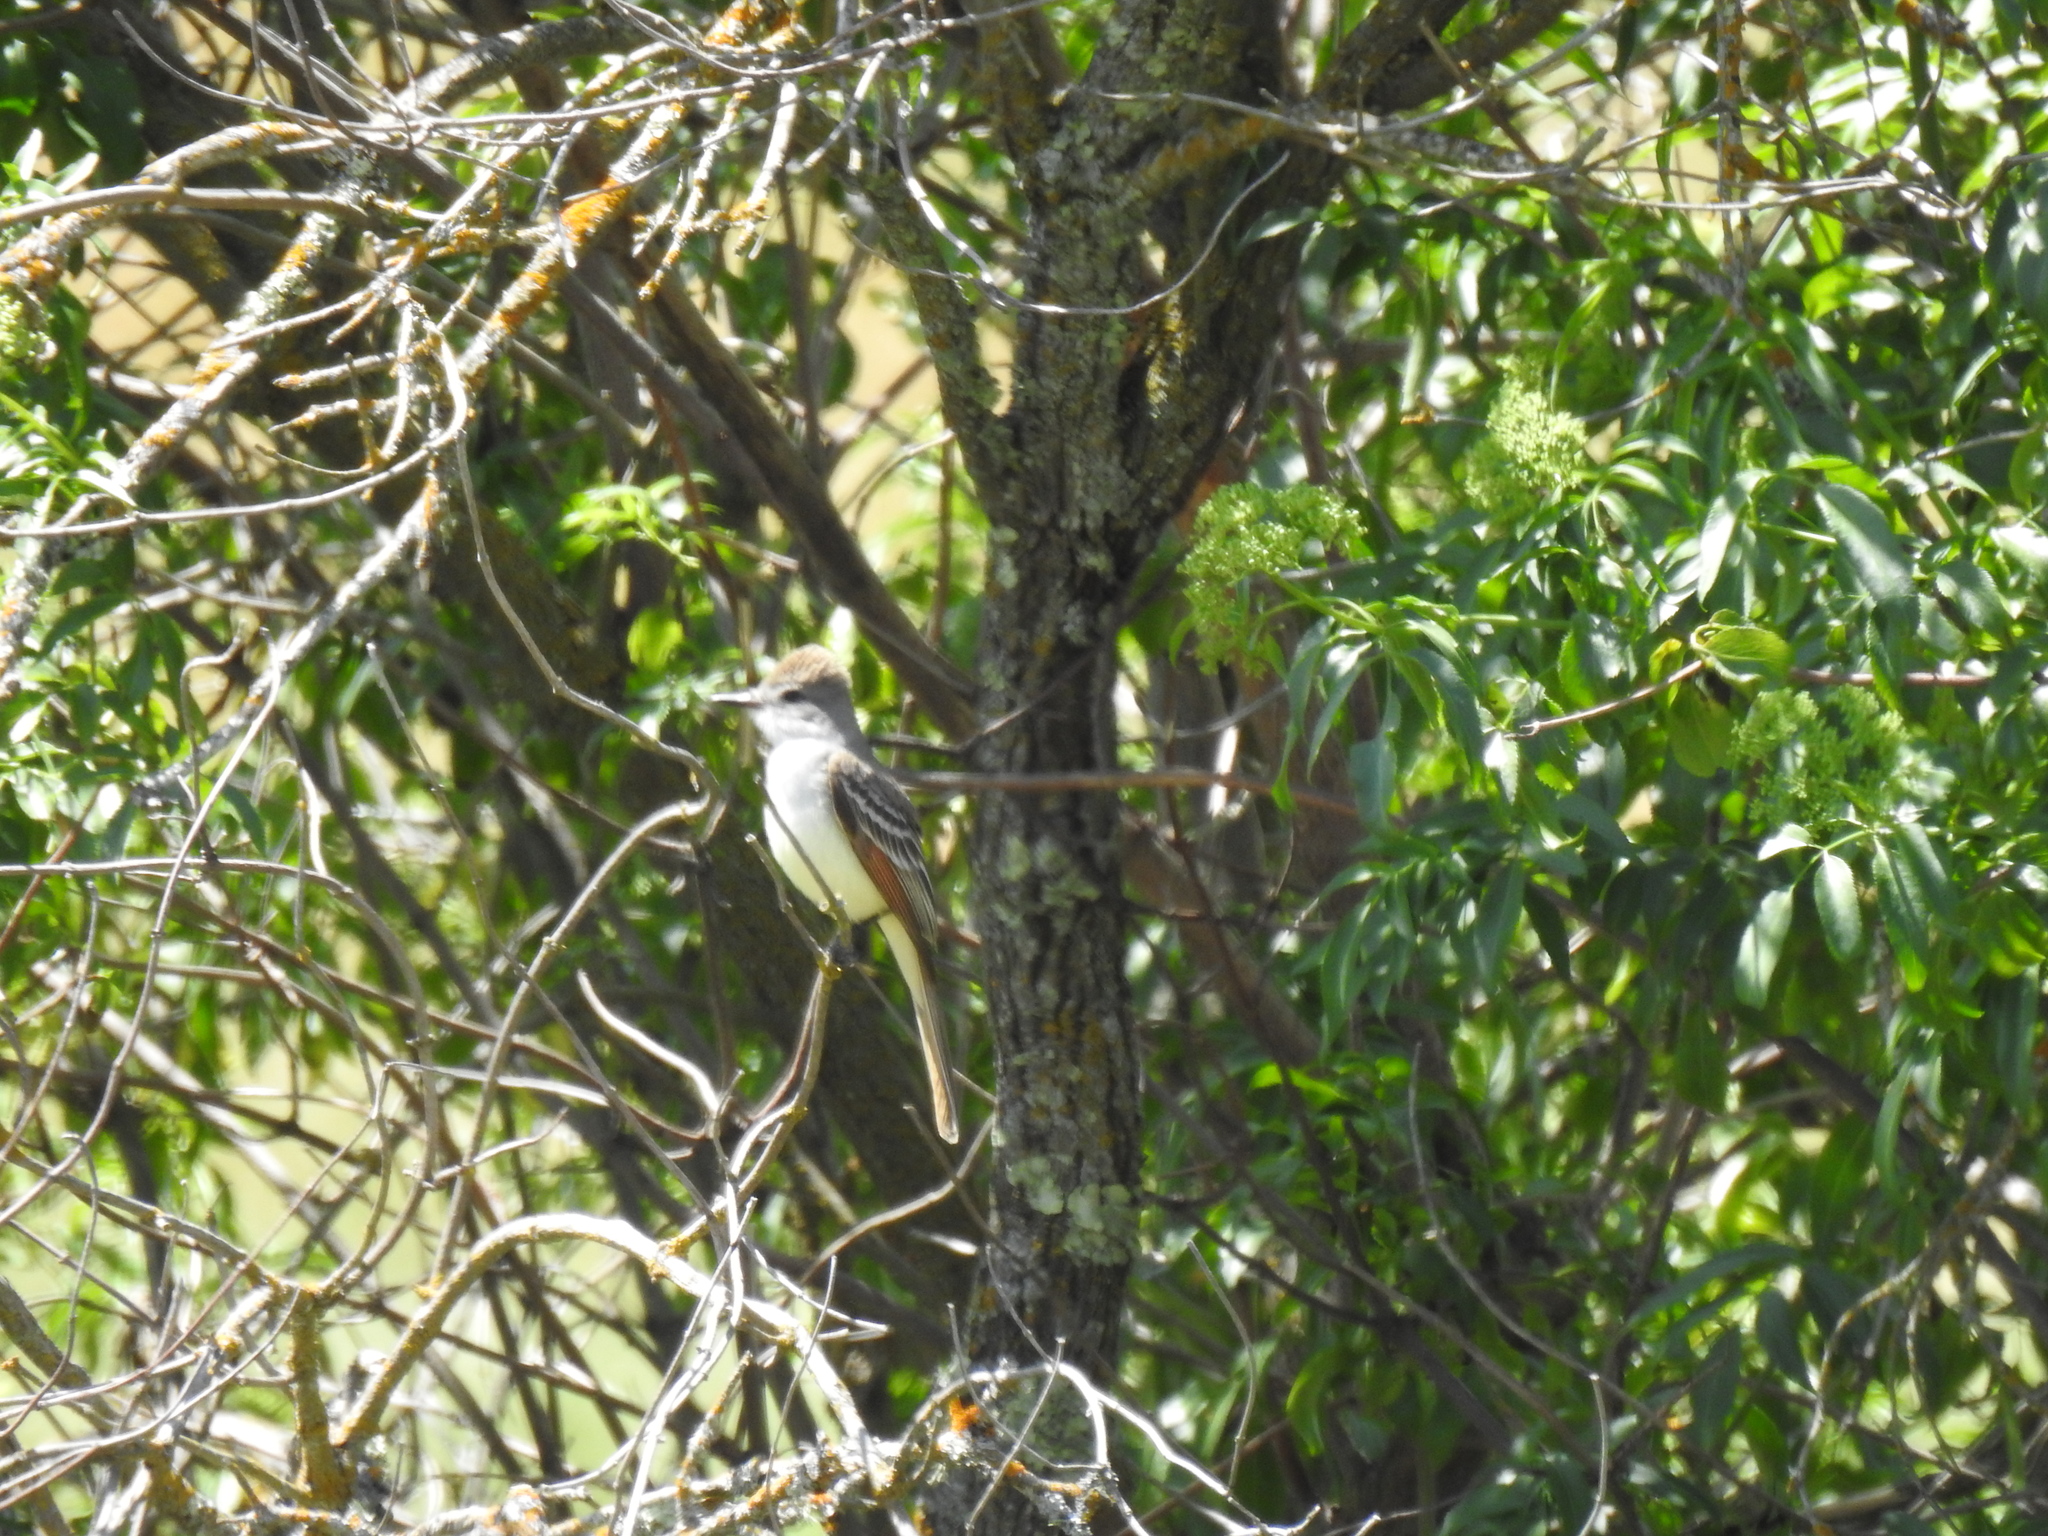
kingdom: Animalia
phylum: Chordata
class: Aves
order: Passeriformes
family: Tyrannidae
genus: Myiarchus
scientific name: Myiarchus cinerascens
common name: Ash-throated flycatcher
